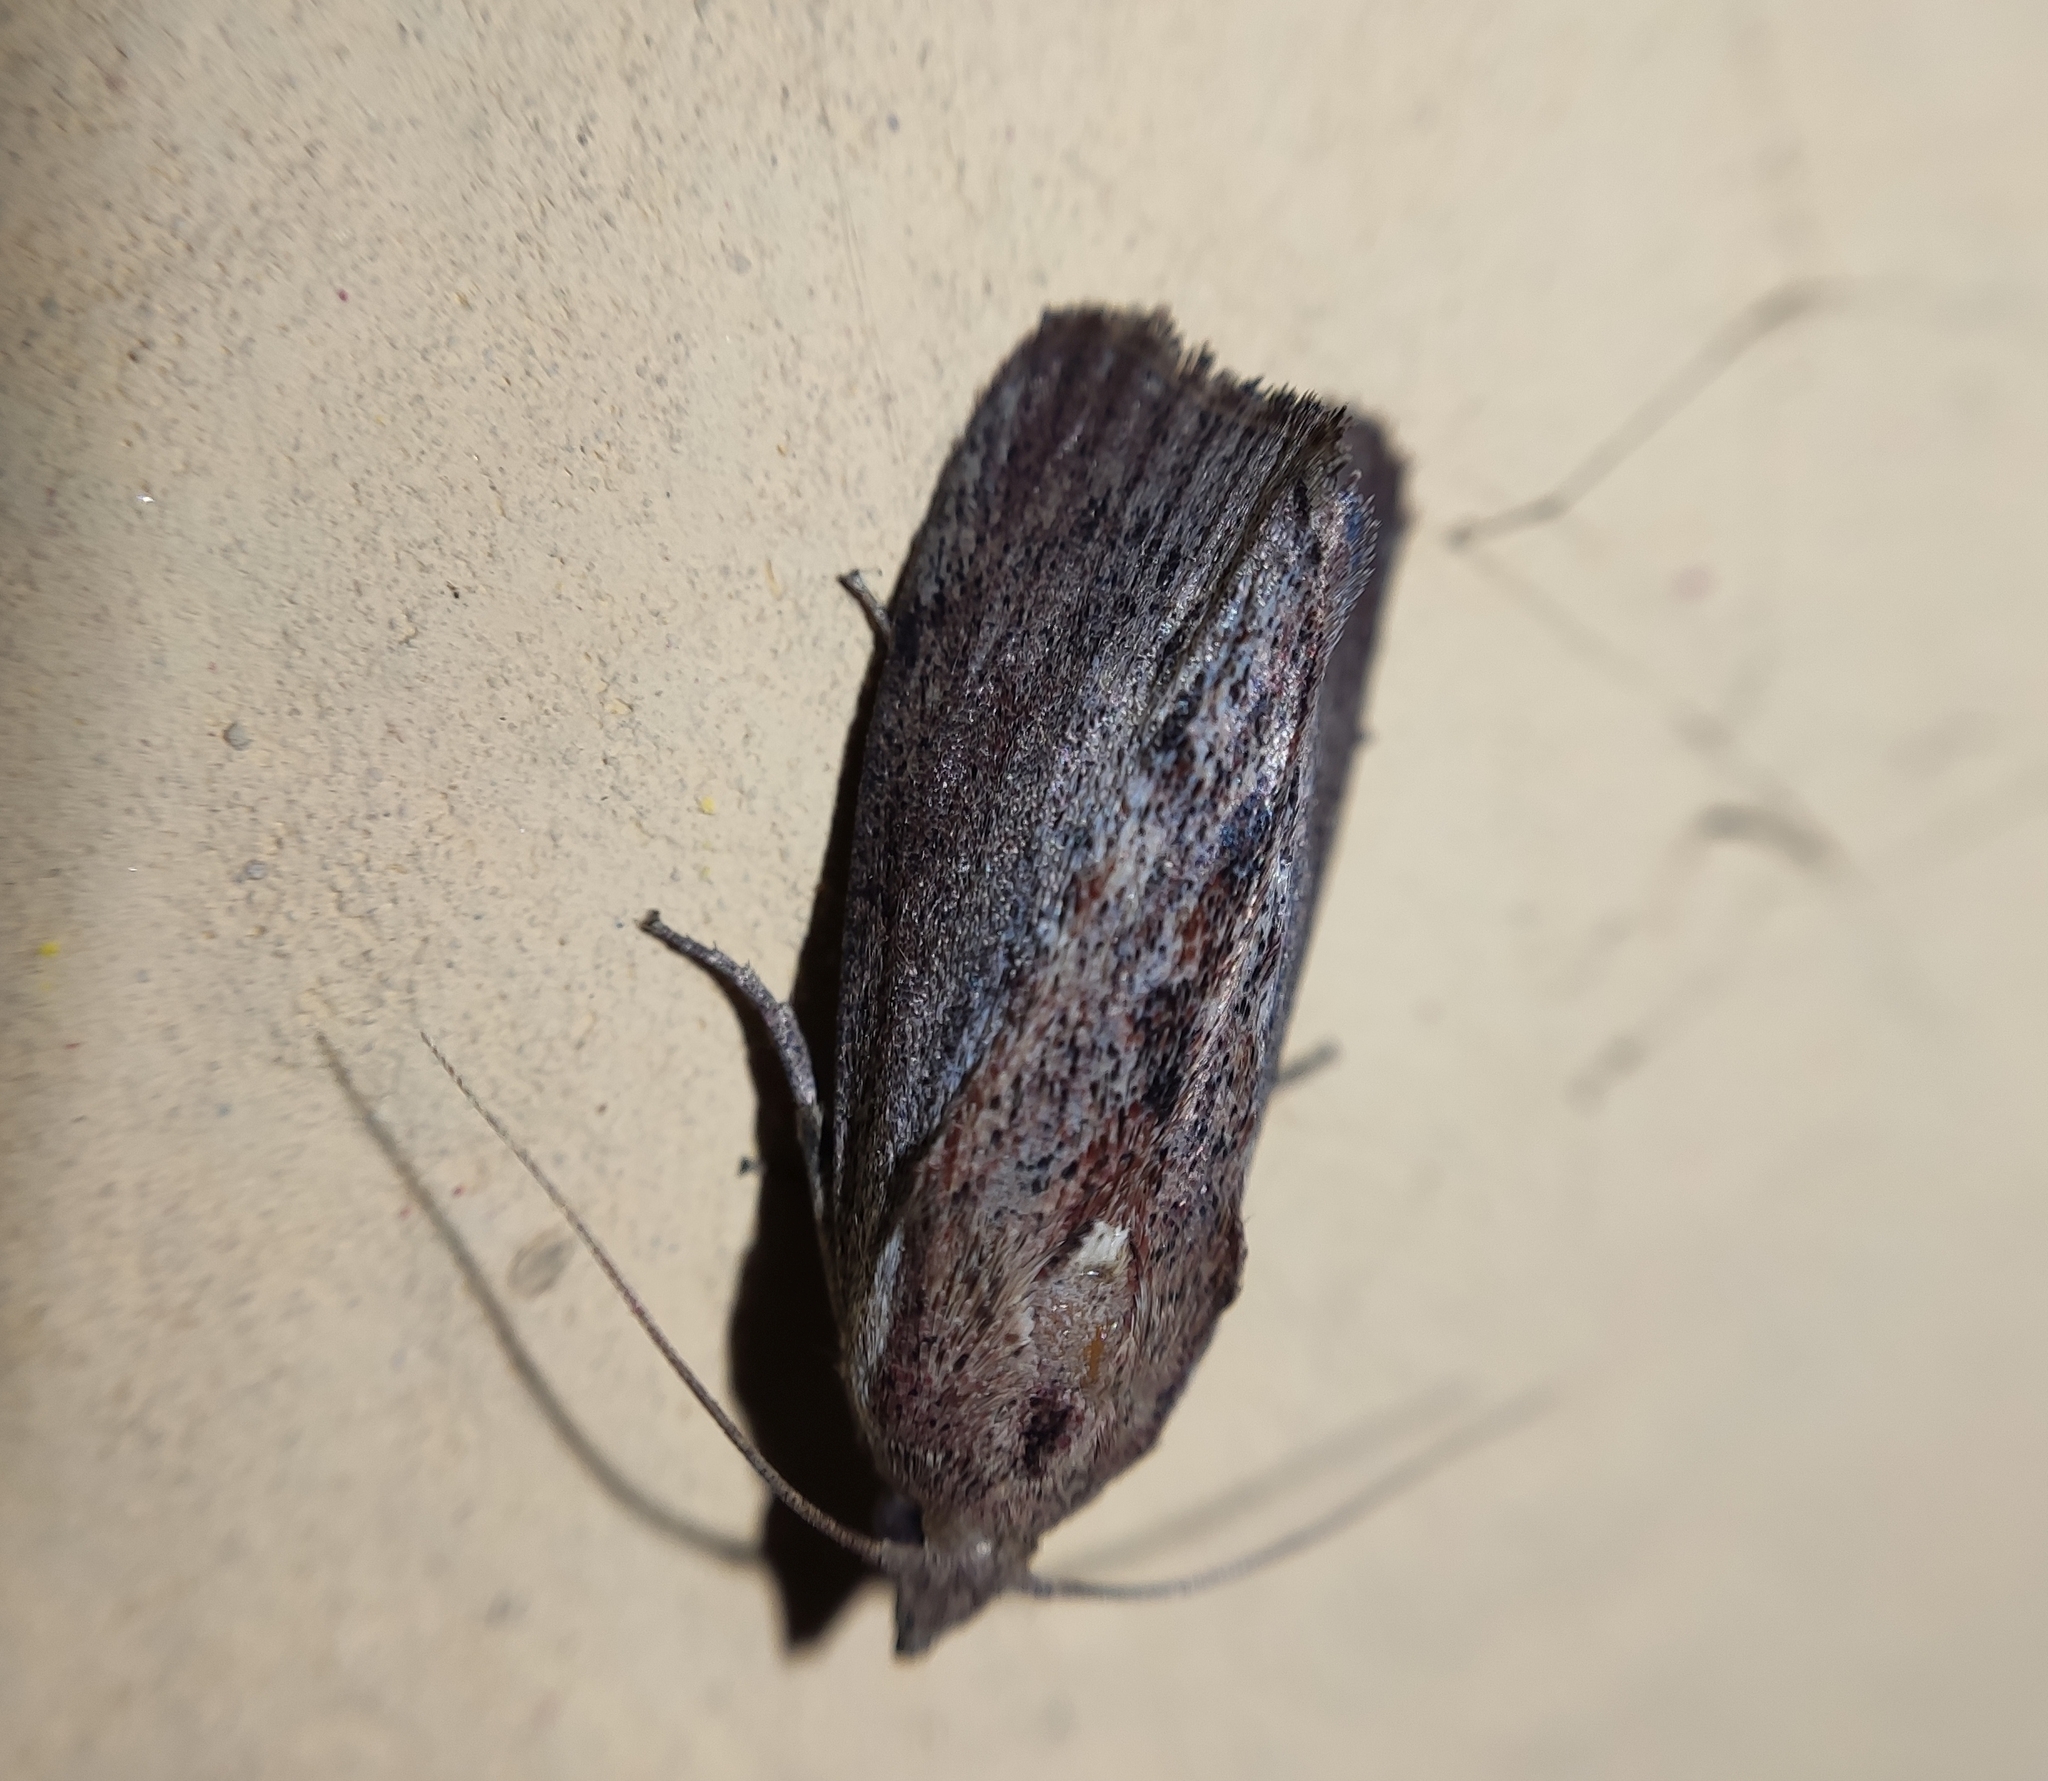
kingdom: Animalia
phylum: Arthropoda
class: Insecta
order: Lepidoptera
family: Pyralidae
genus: Galleria
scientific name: Galleria mellonella
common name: Greater wax moth
